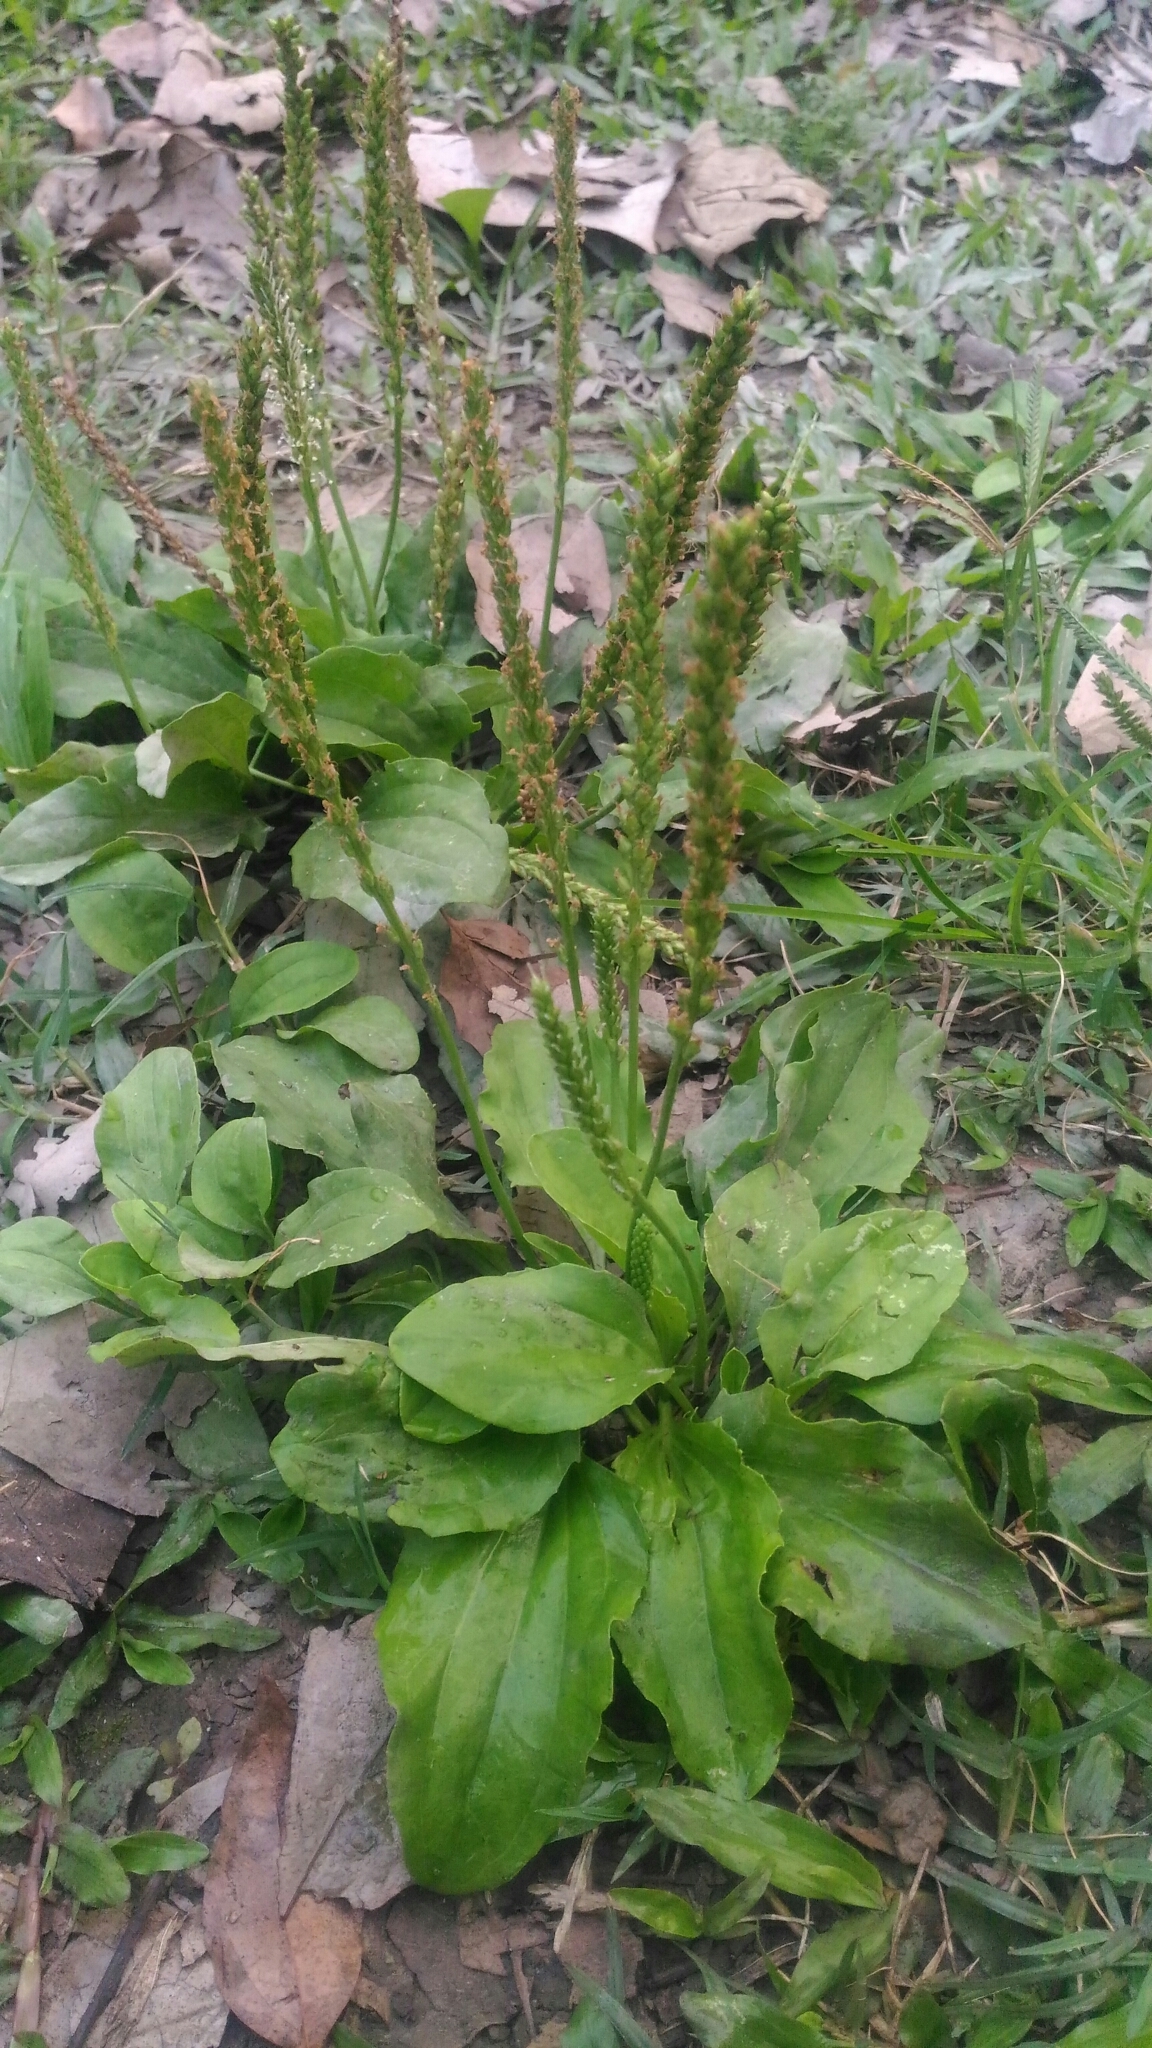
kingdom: Plantae
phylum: Tracheophyta
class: Magnoliopsida
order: Lamiales
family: Plantaginaceae
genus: Plantago
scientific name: Plantago asiatica
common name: Psyllium
